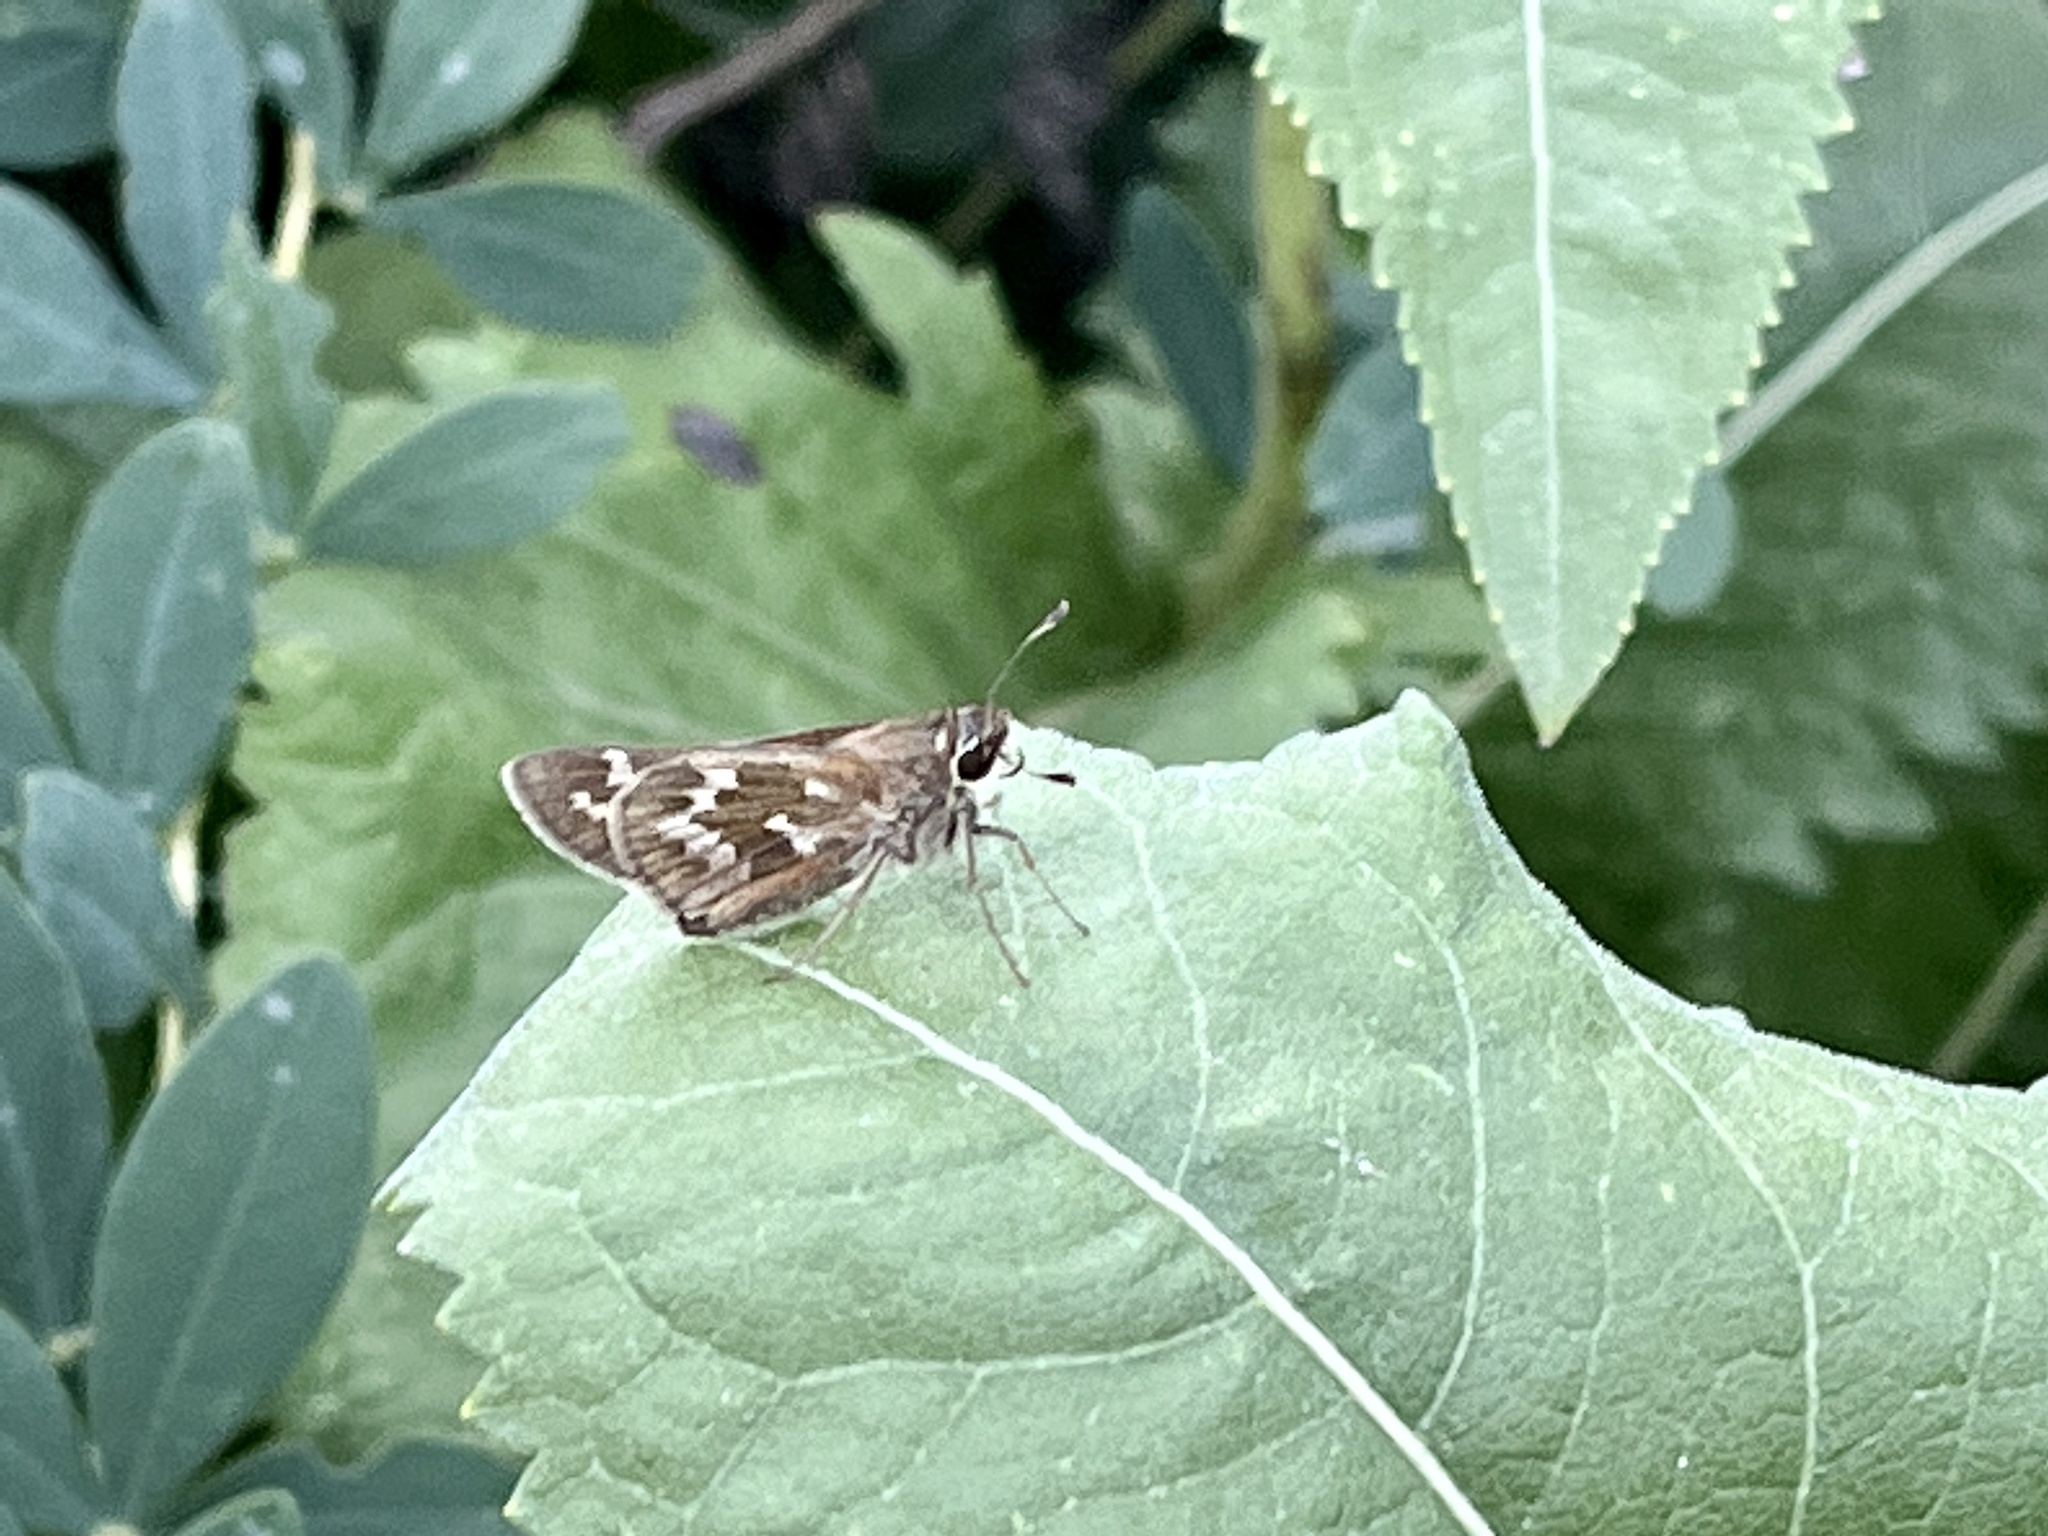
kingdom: Animalia
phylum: Arthropoda
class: Insecta
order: Lepidoptera
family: Hesperiidae
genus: Atalopedes
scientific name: Atalopedes
